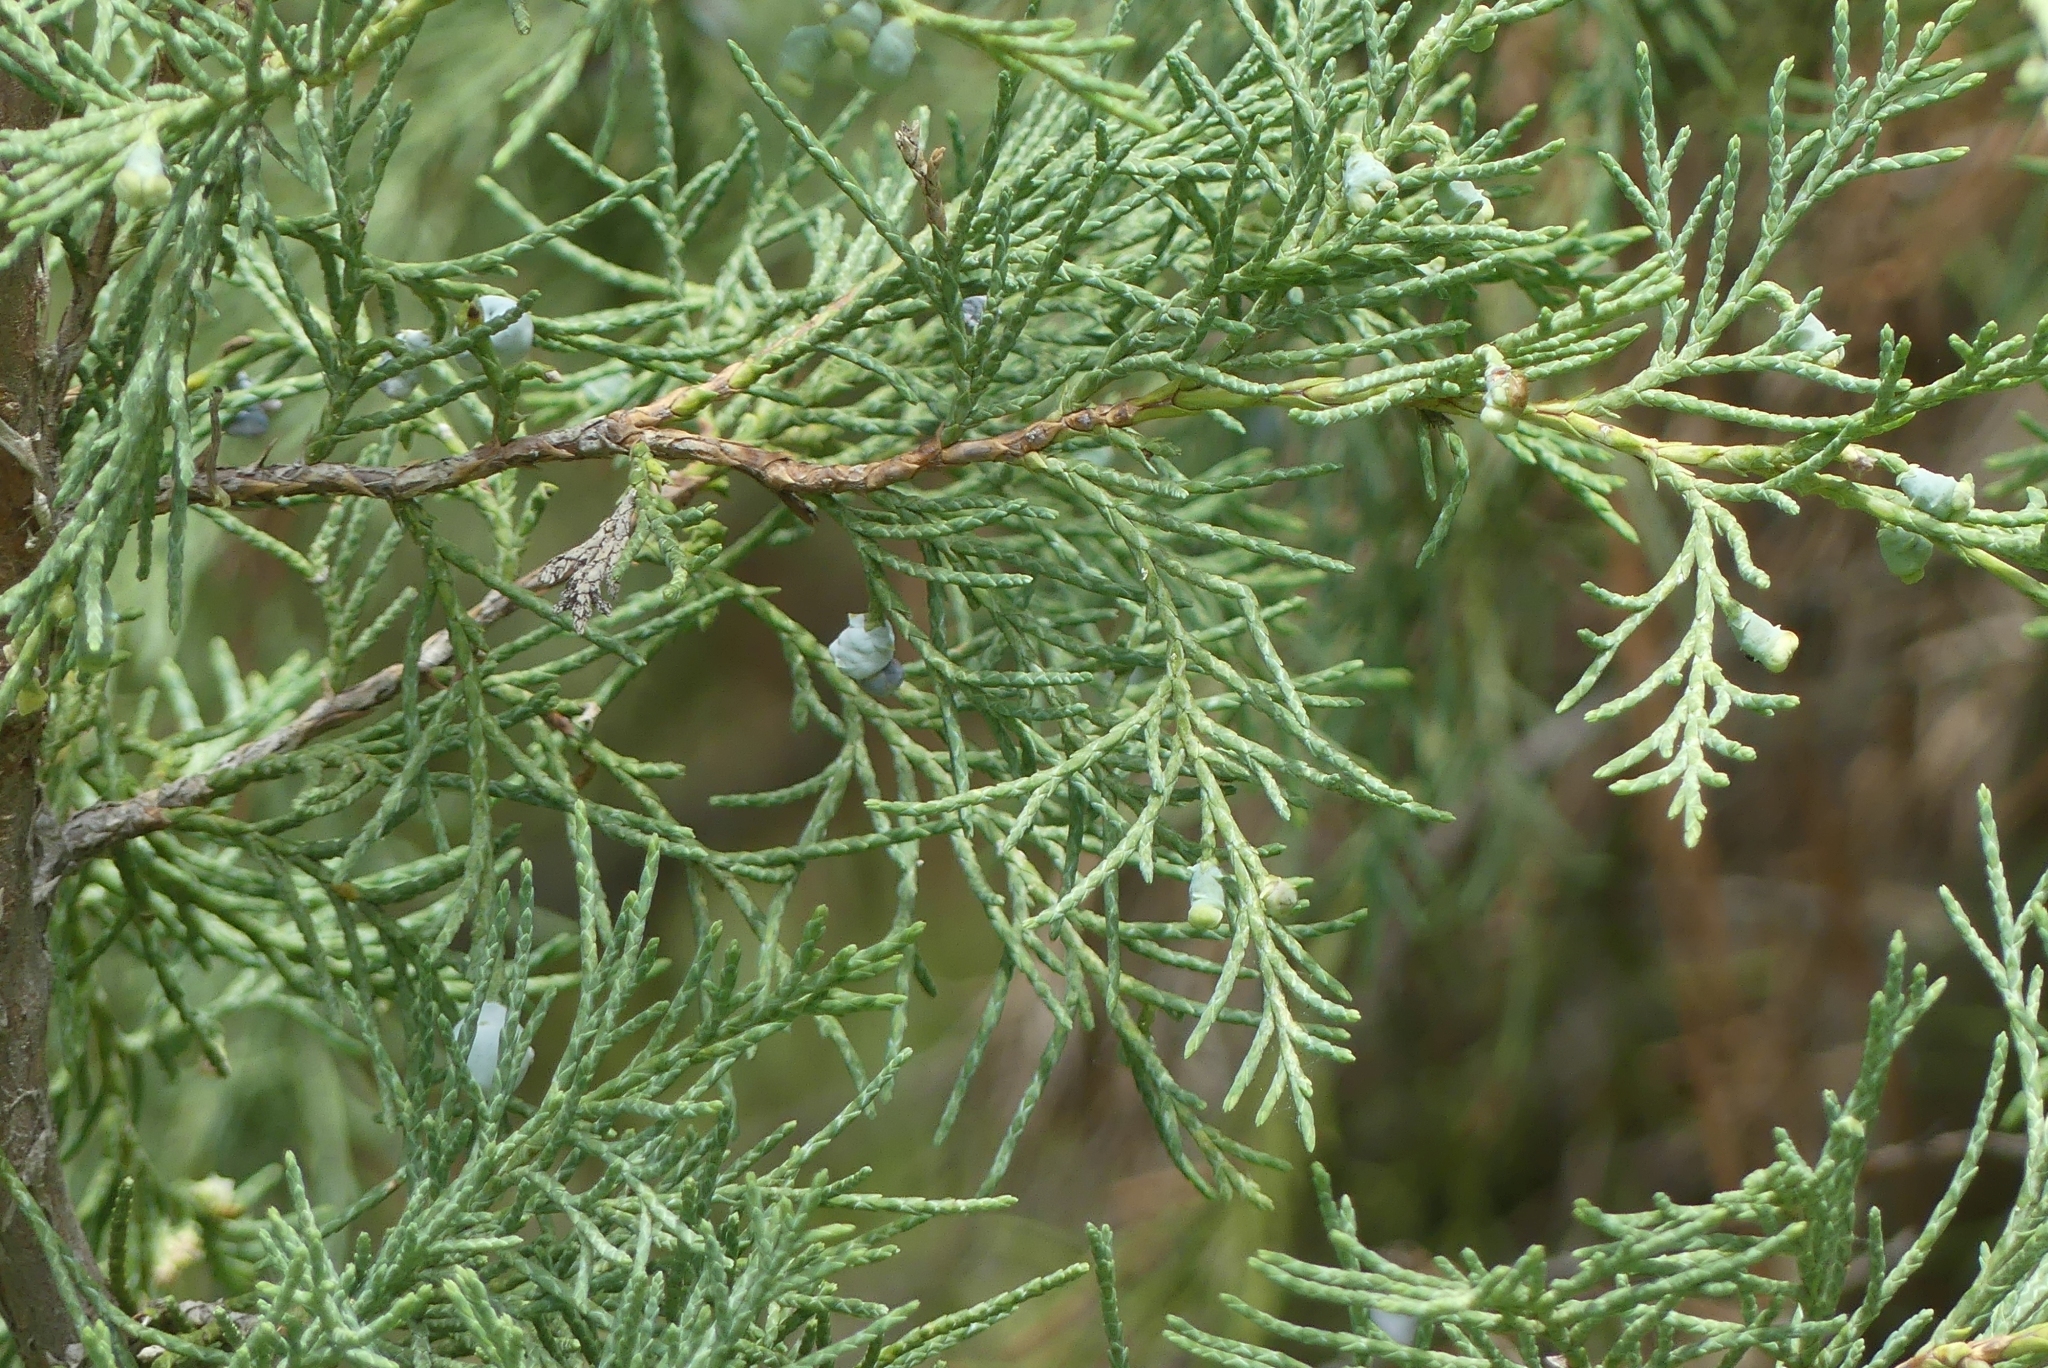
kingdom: Plantae
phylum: Tracheophyta
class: Pinopsida
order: Pinales
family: Cupressaceae
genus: Juniperus
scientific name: Juniperus scopulorum
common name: Rocky mountain juniper
